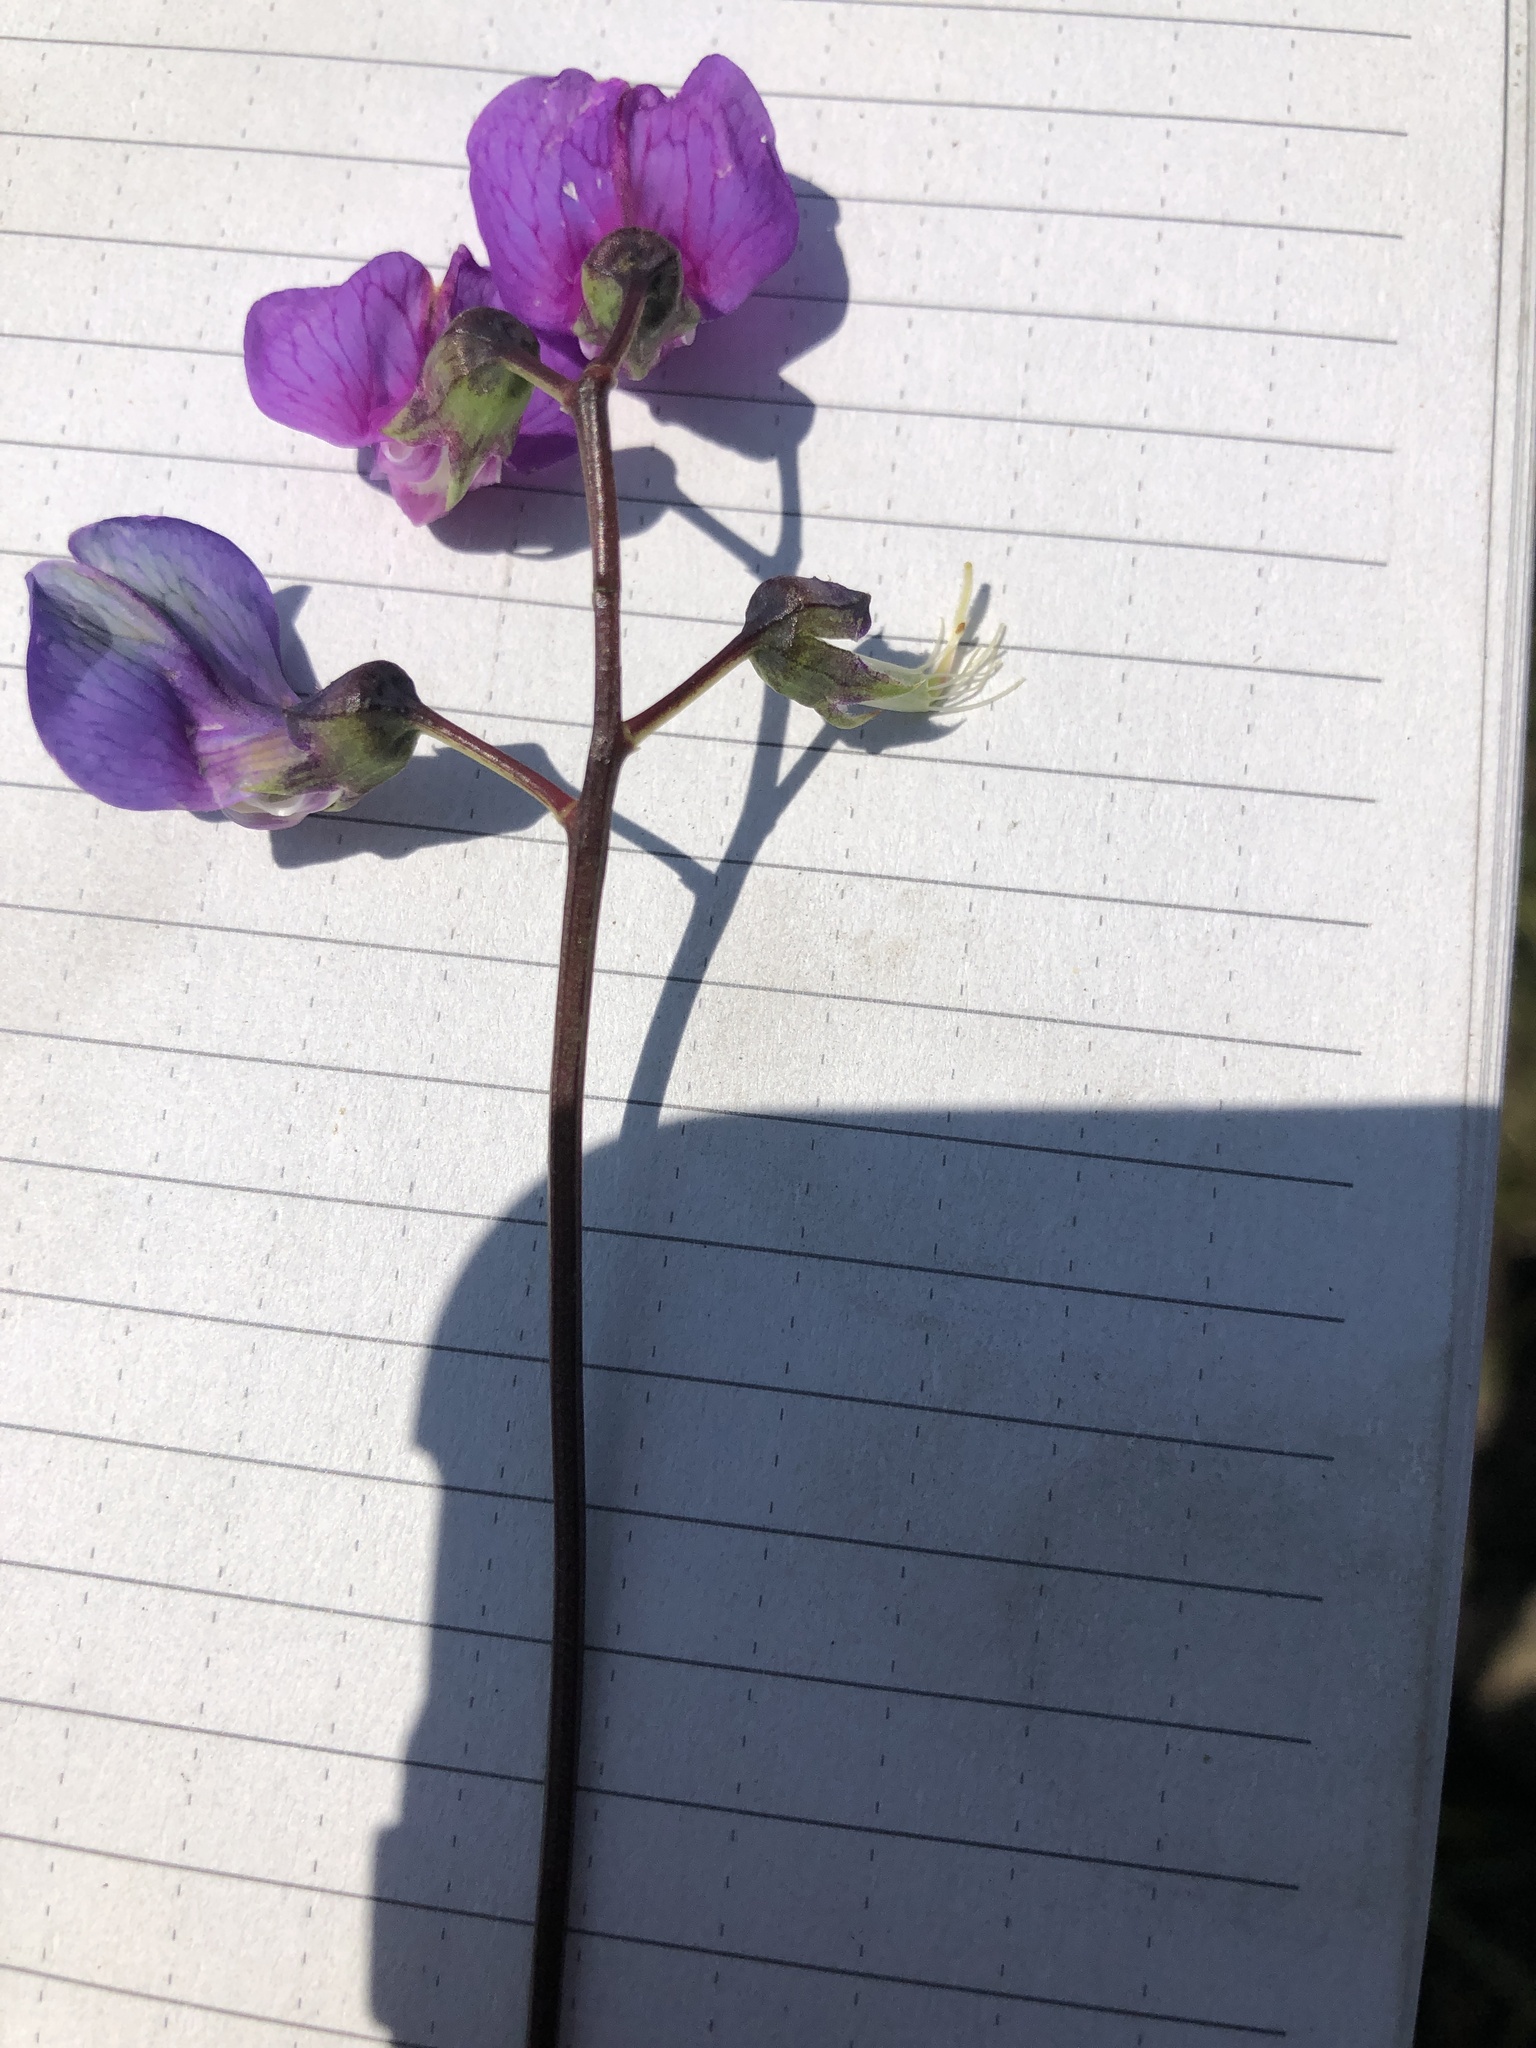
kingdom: Plantae
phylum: Tracheophyta
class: Magnoliopsida
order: Fabales
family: Fabaceae
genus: Lathyrus
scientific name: Lathyrus palustris
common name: Marsh pea
